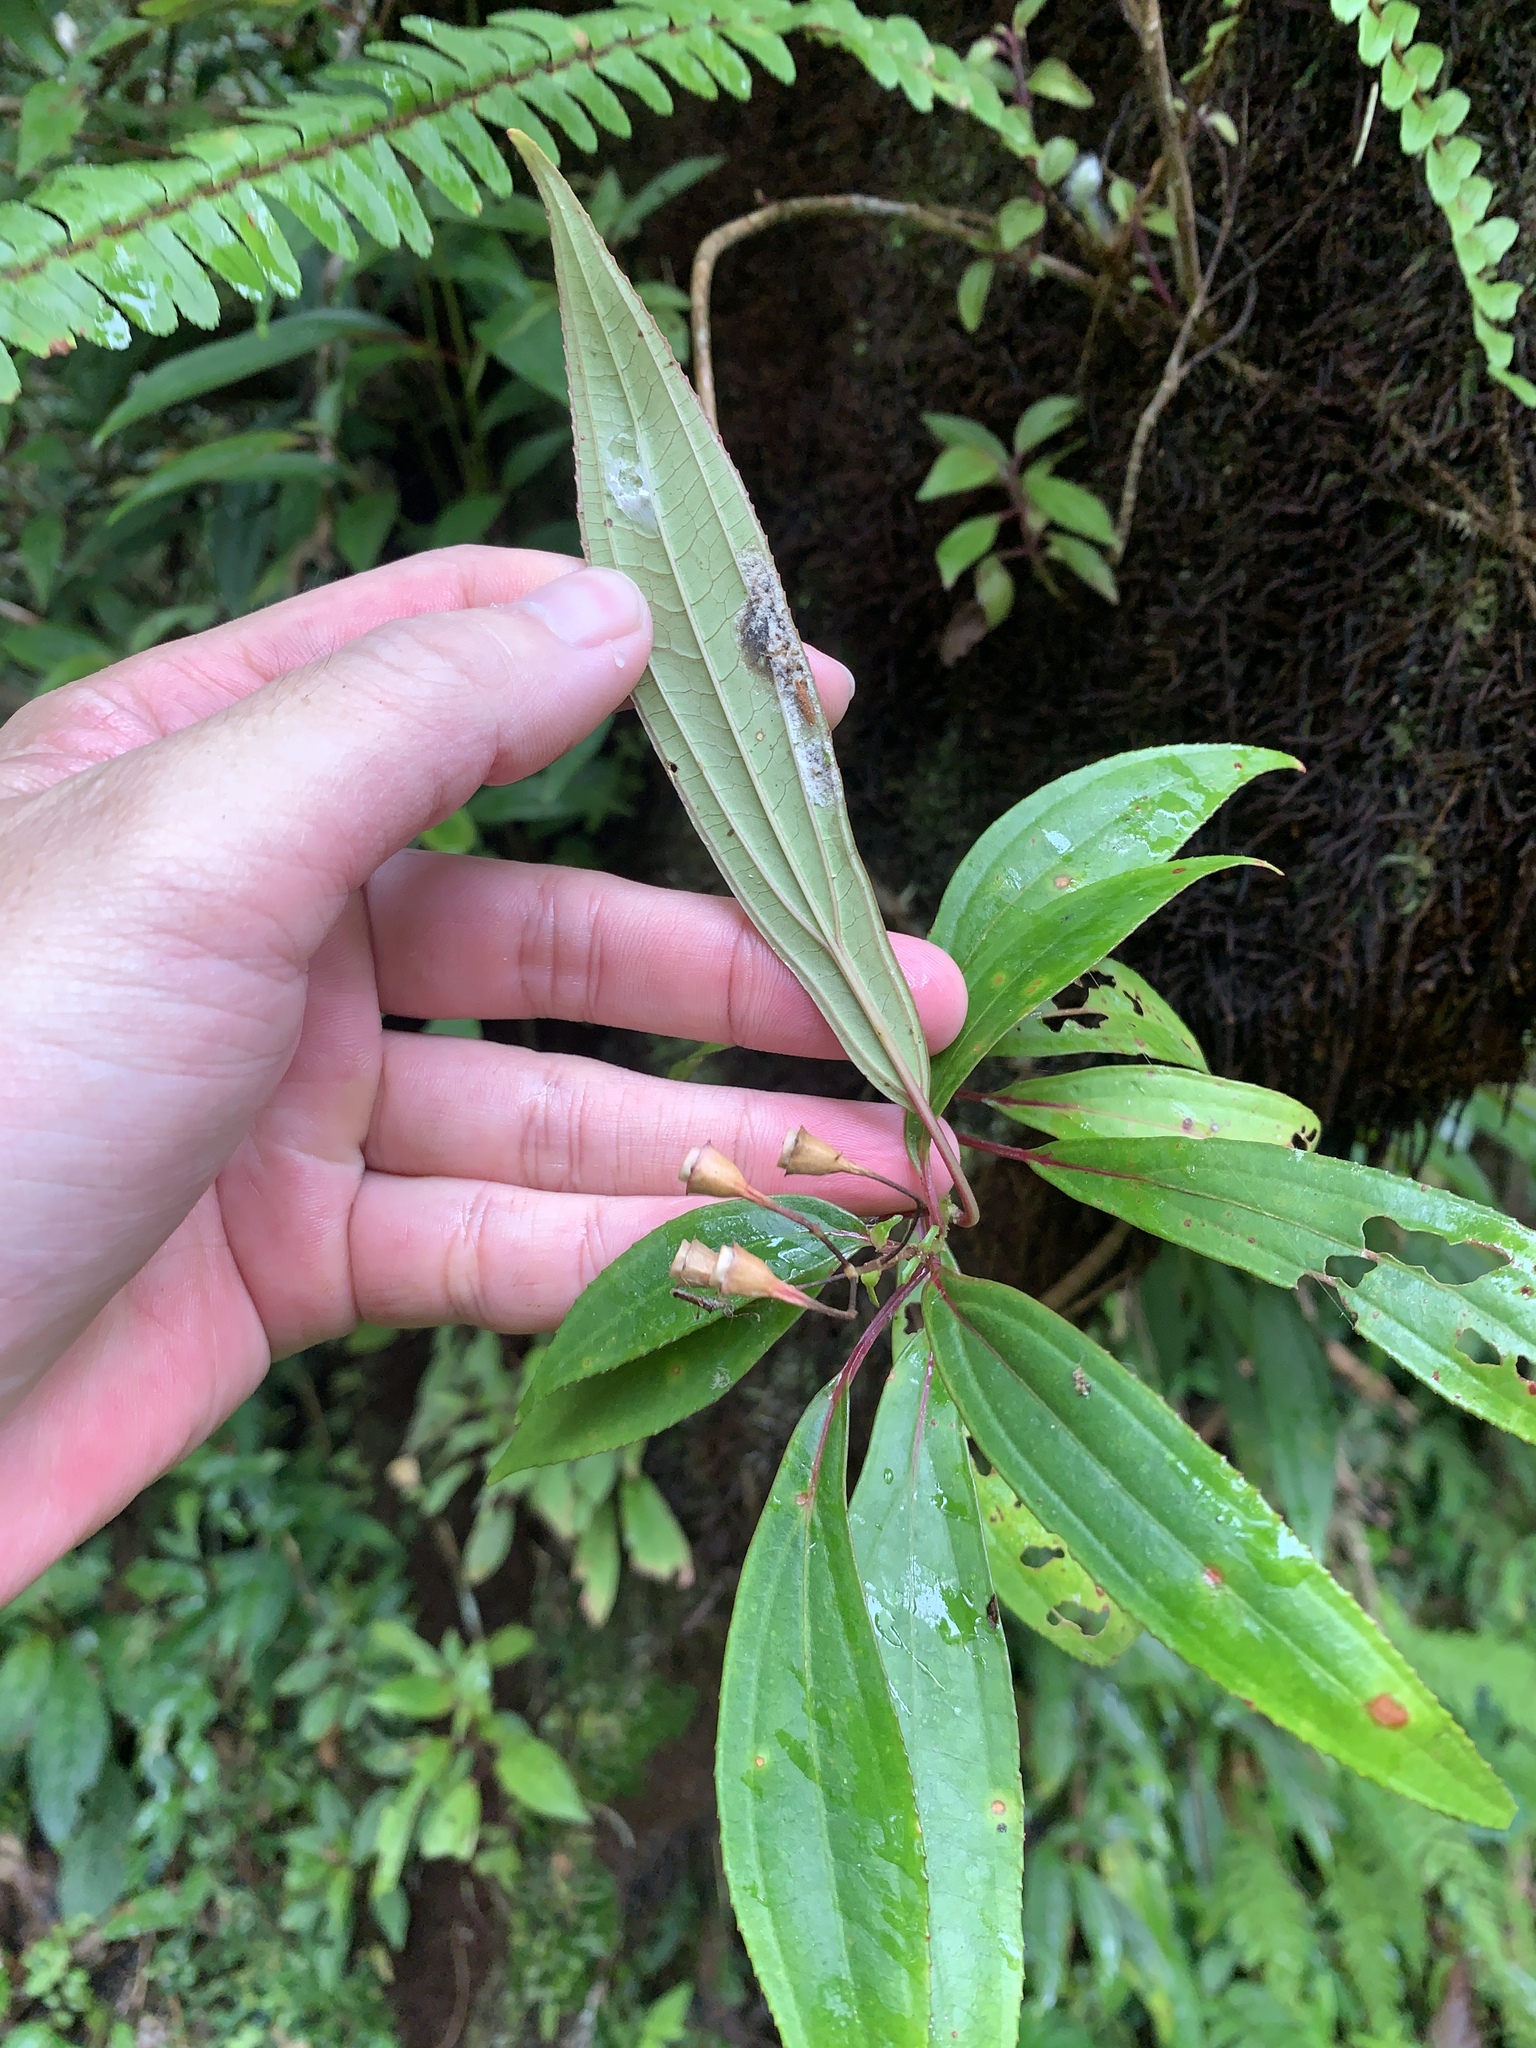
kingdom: Plantae
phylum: Tracheophyta
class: Magnoliopsida
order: Myrtales
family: Melastomataceae
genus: Bredia
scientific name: Bredia oldhamii
